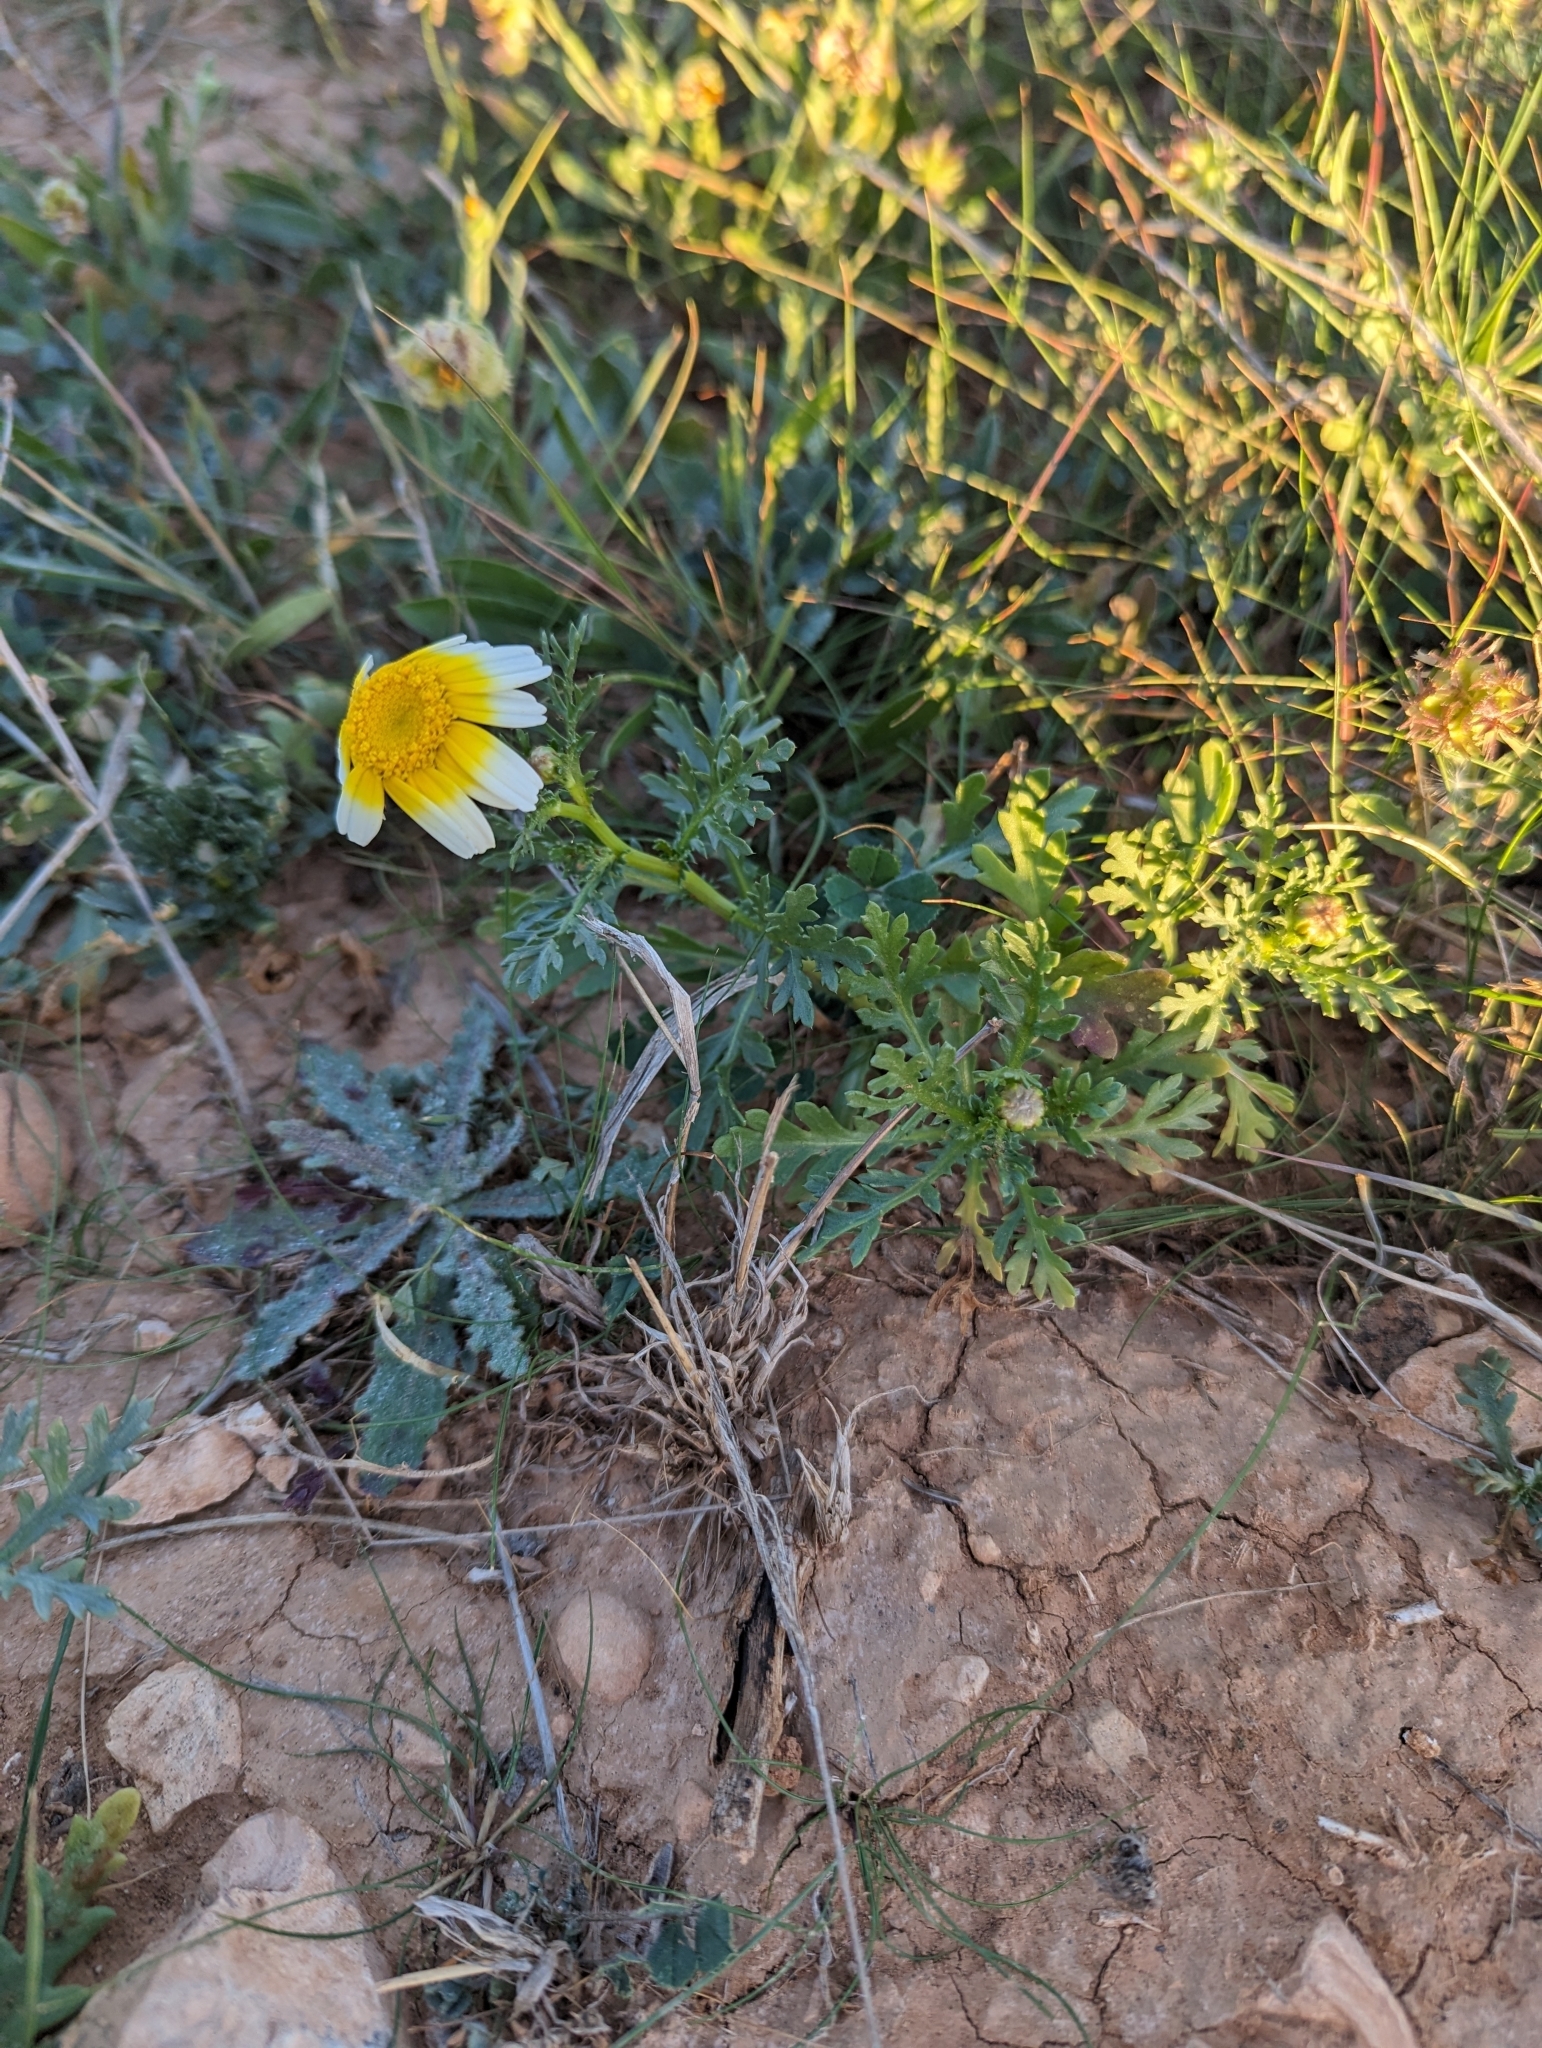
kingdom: Plantae
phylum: Tracheophyta
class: Magnoliopsida
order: Asterales
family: Asteraceae
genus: Glebionis
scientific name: Glebionis coronaria
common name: Crowndaisy
